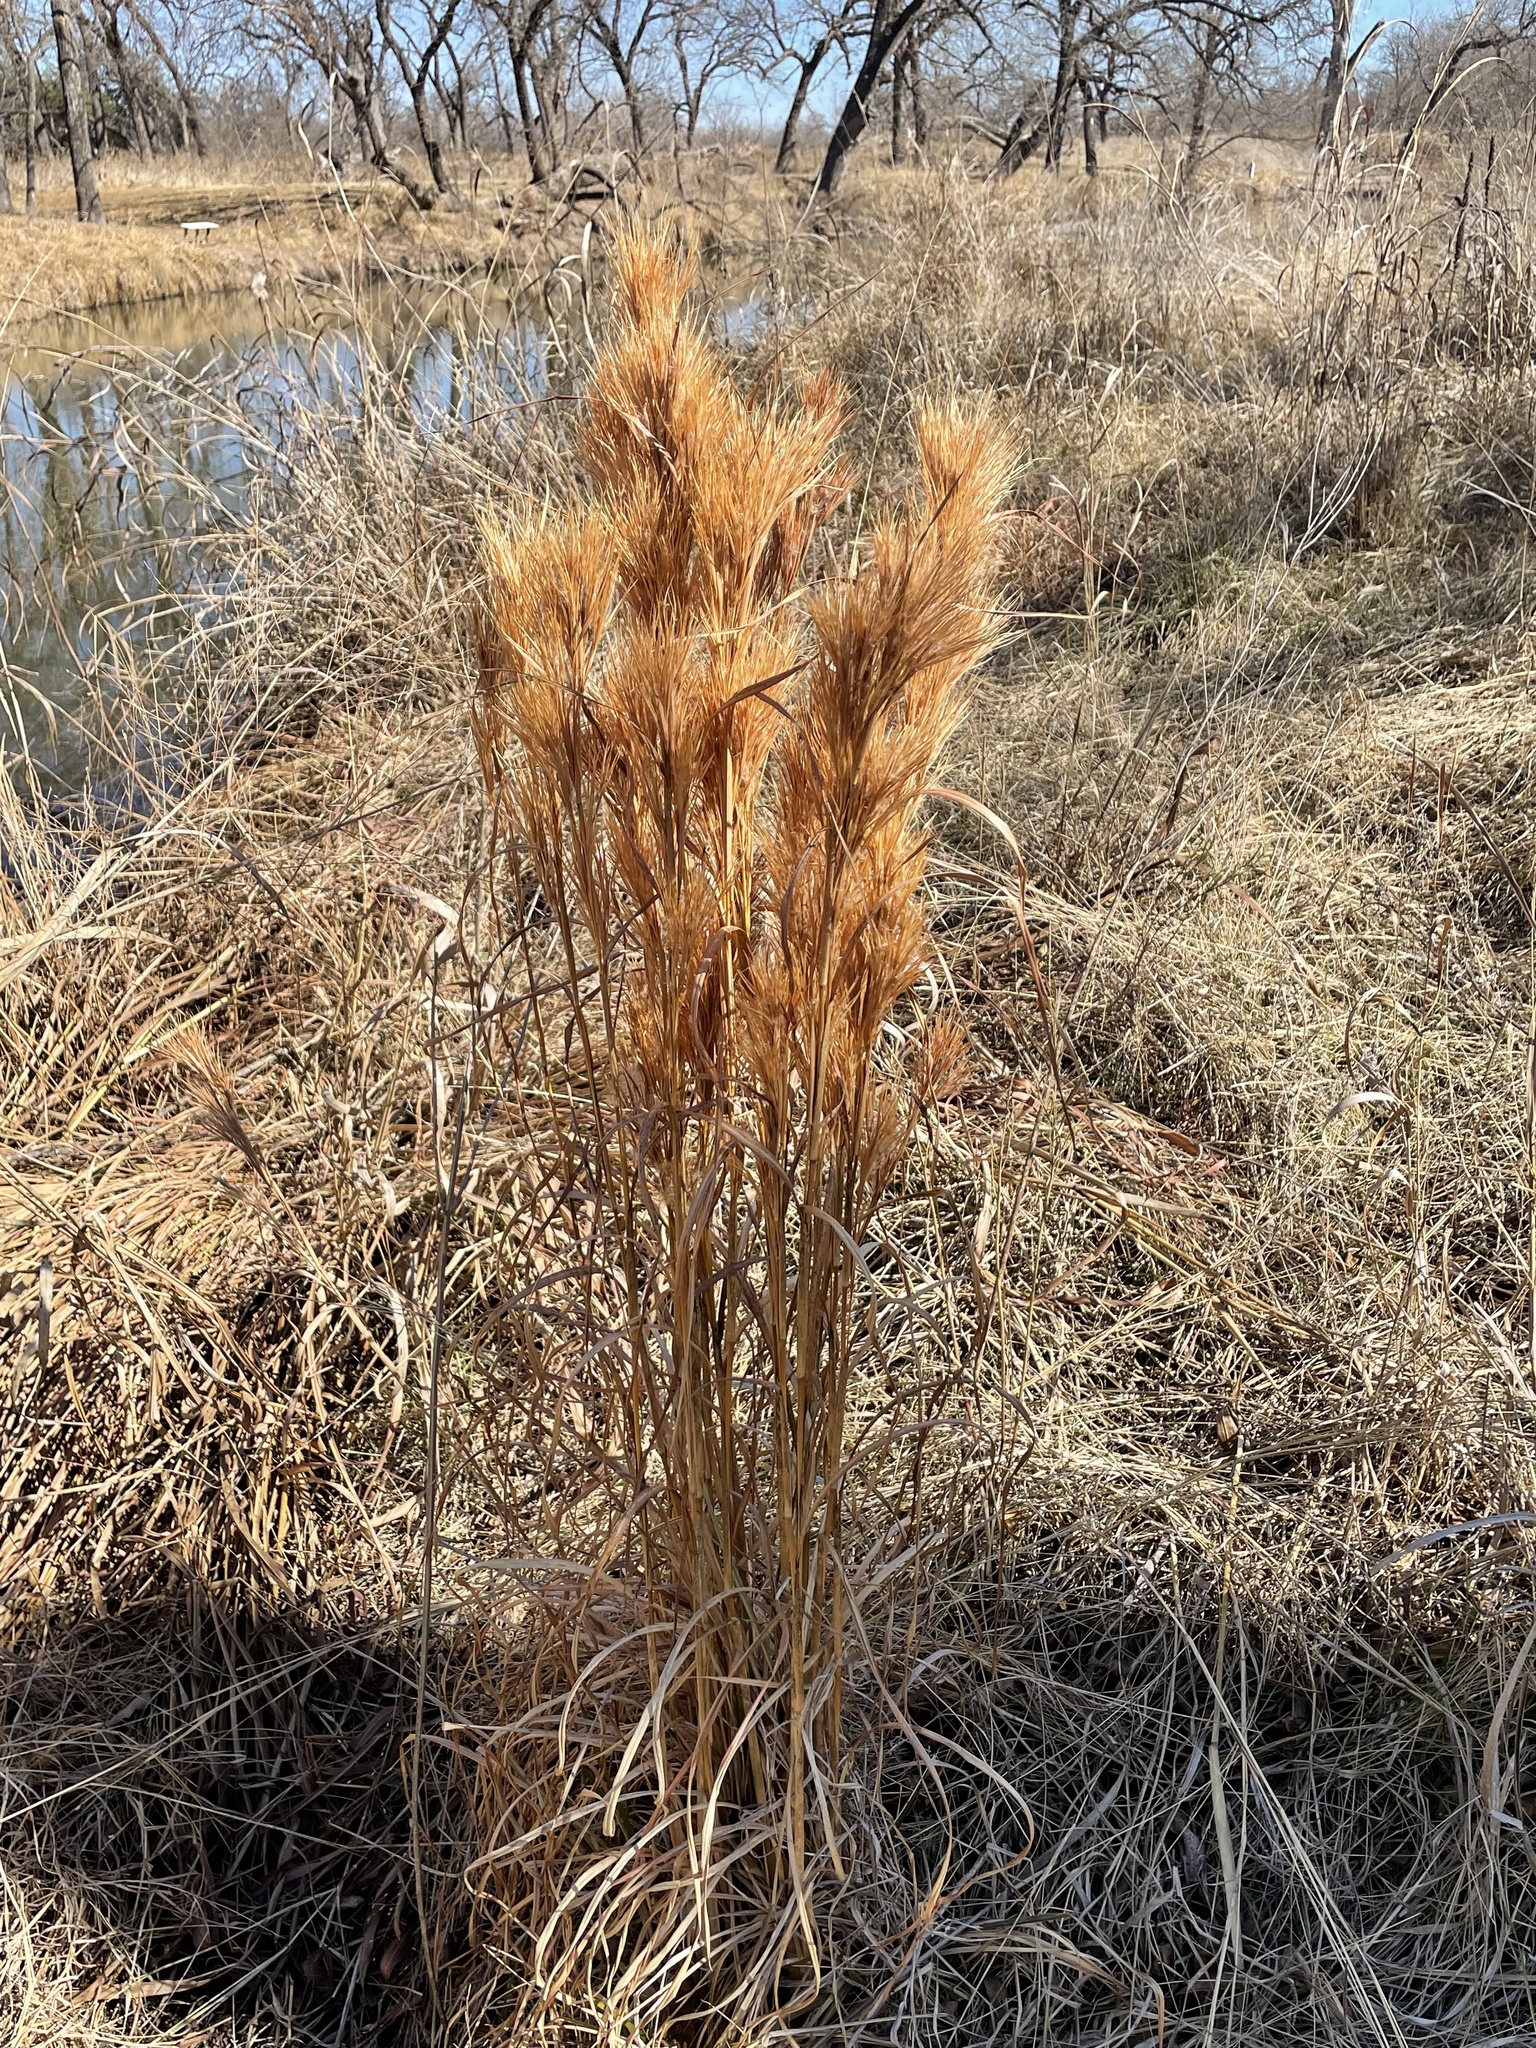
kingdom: Plantae
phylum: Tracheophyta
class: Liliopsida
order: Poales
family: Poaceae
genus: Andropogon
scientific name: Andropogon tenuispatheus
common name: Bushy bluestem
